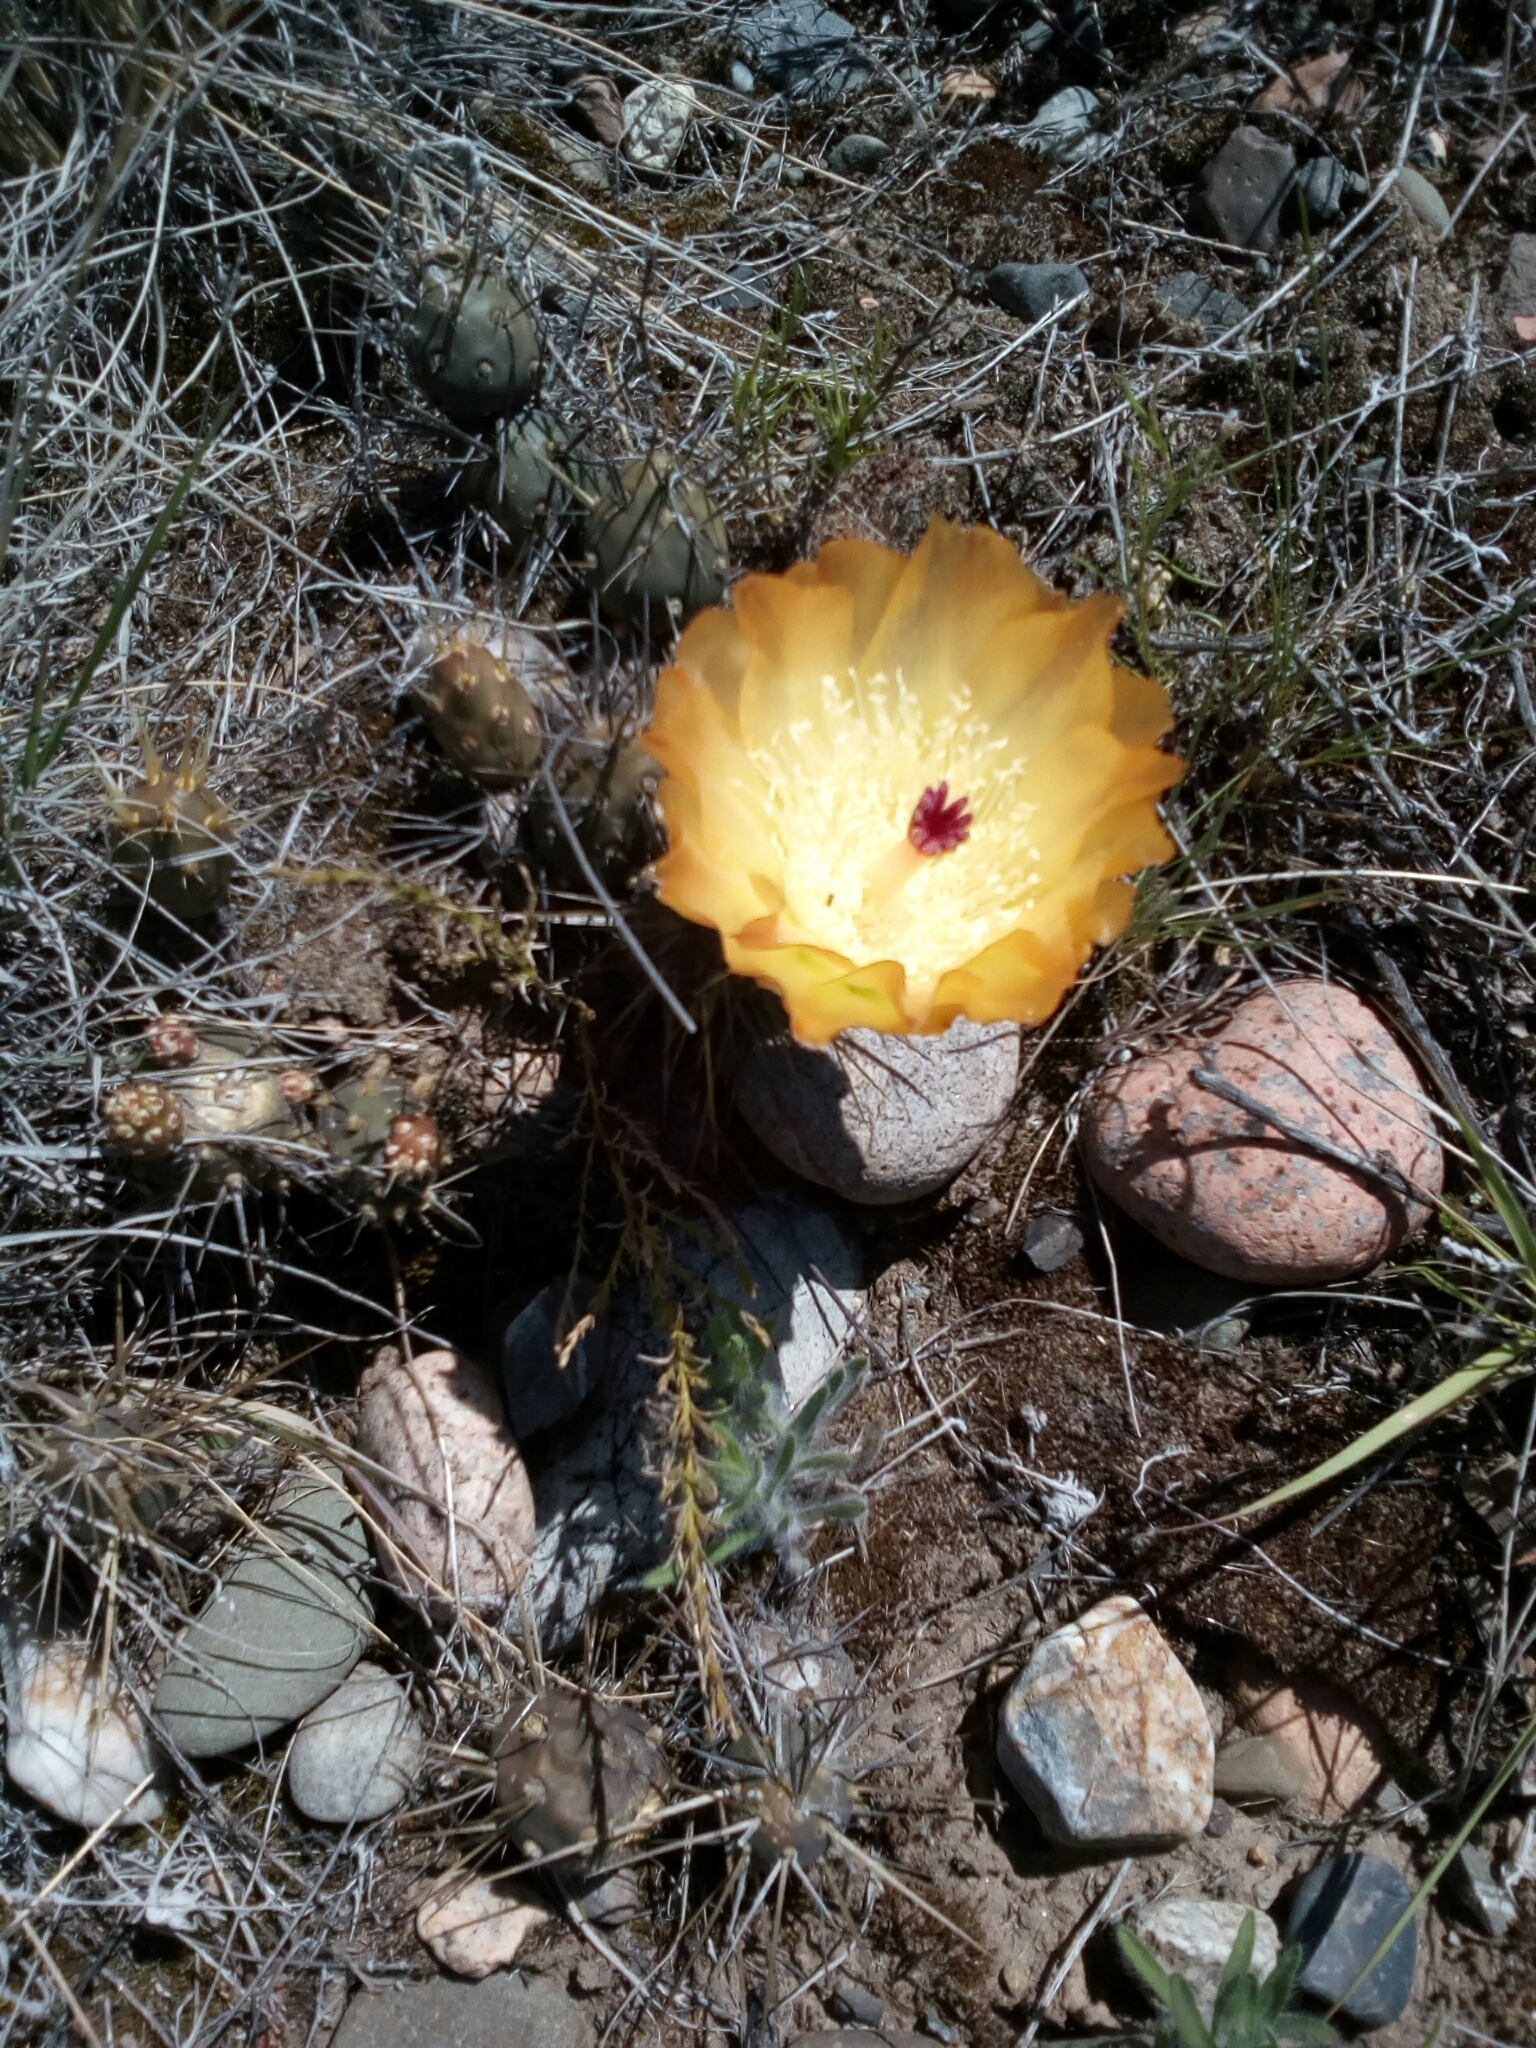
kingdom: Plantae
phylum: Tracheophyta
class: Magnoliopsida
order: Caryophyllales
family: Cactaceae
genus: Maihueniopsis
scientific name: Maihueniopsis darwinii
